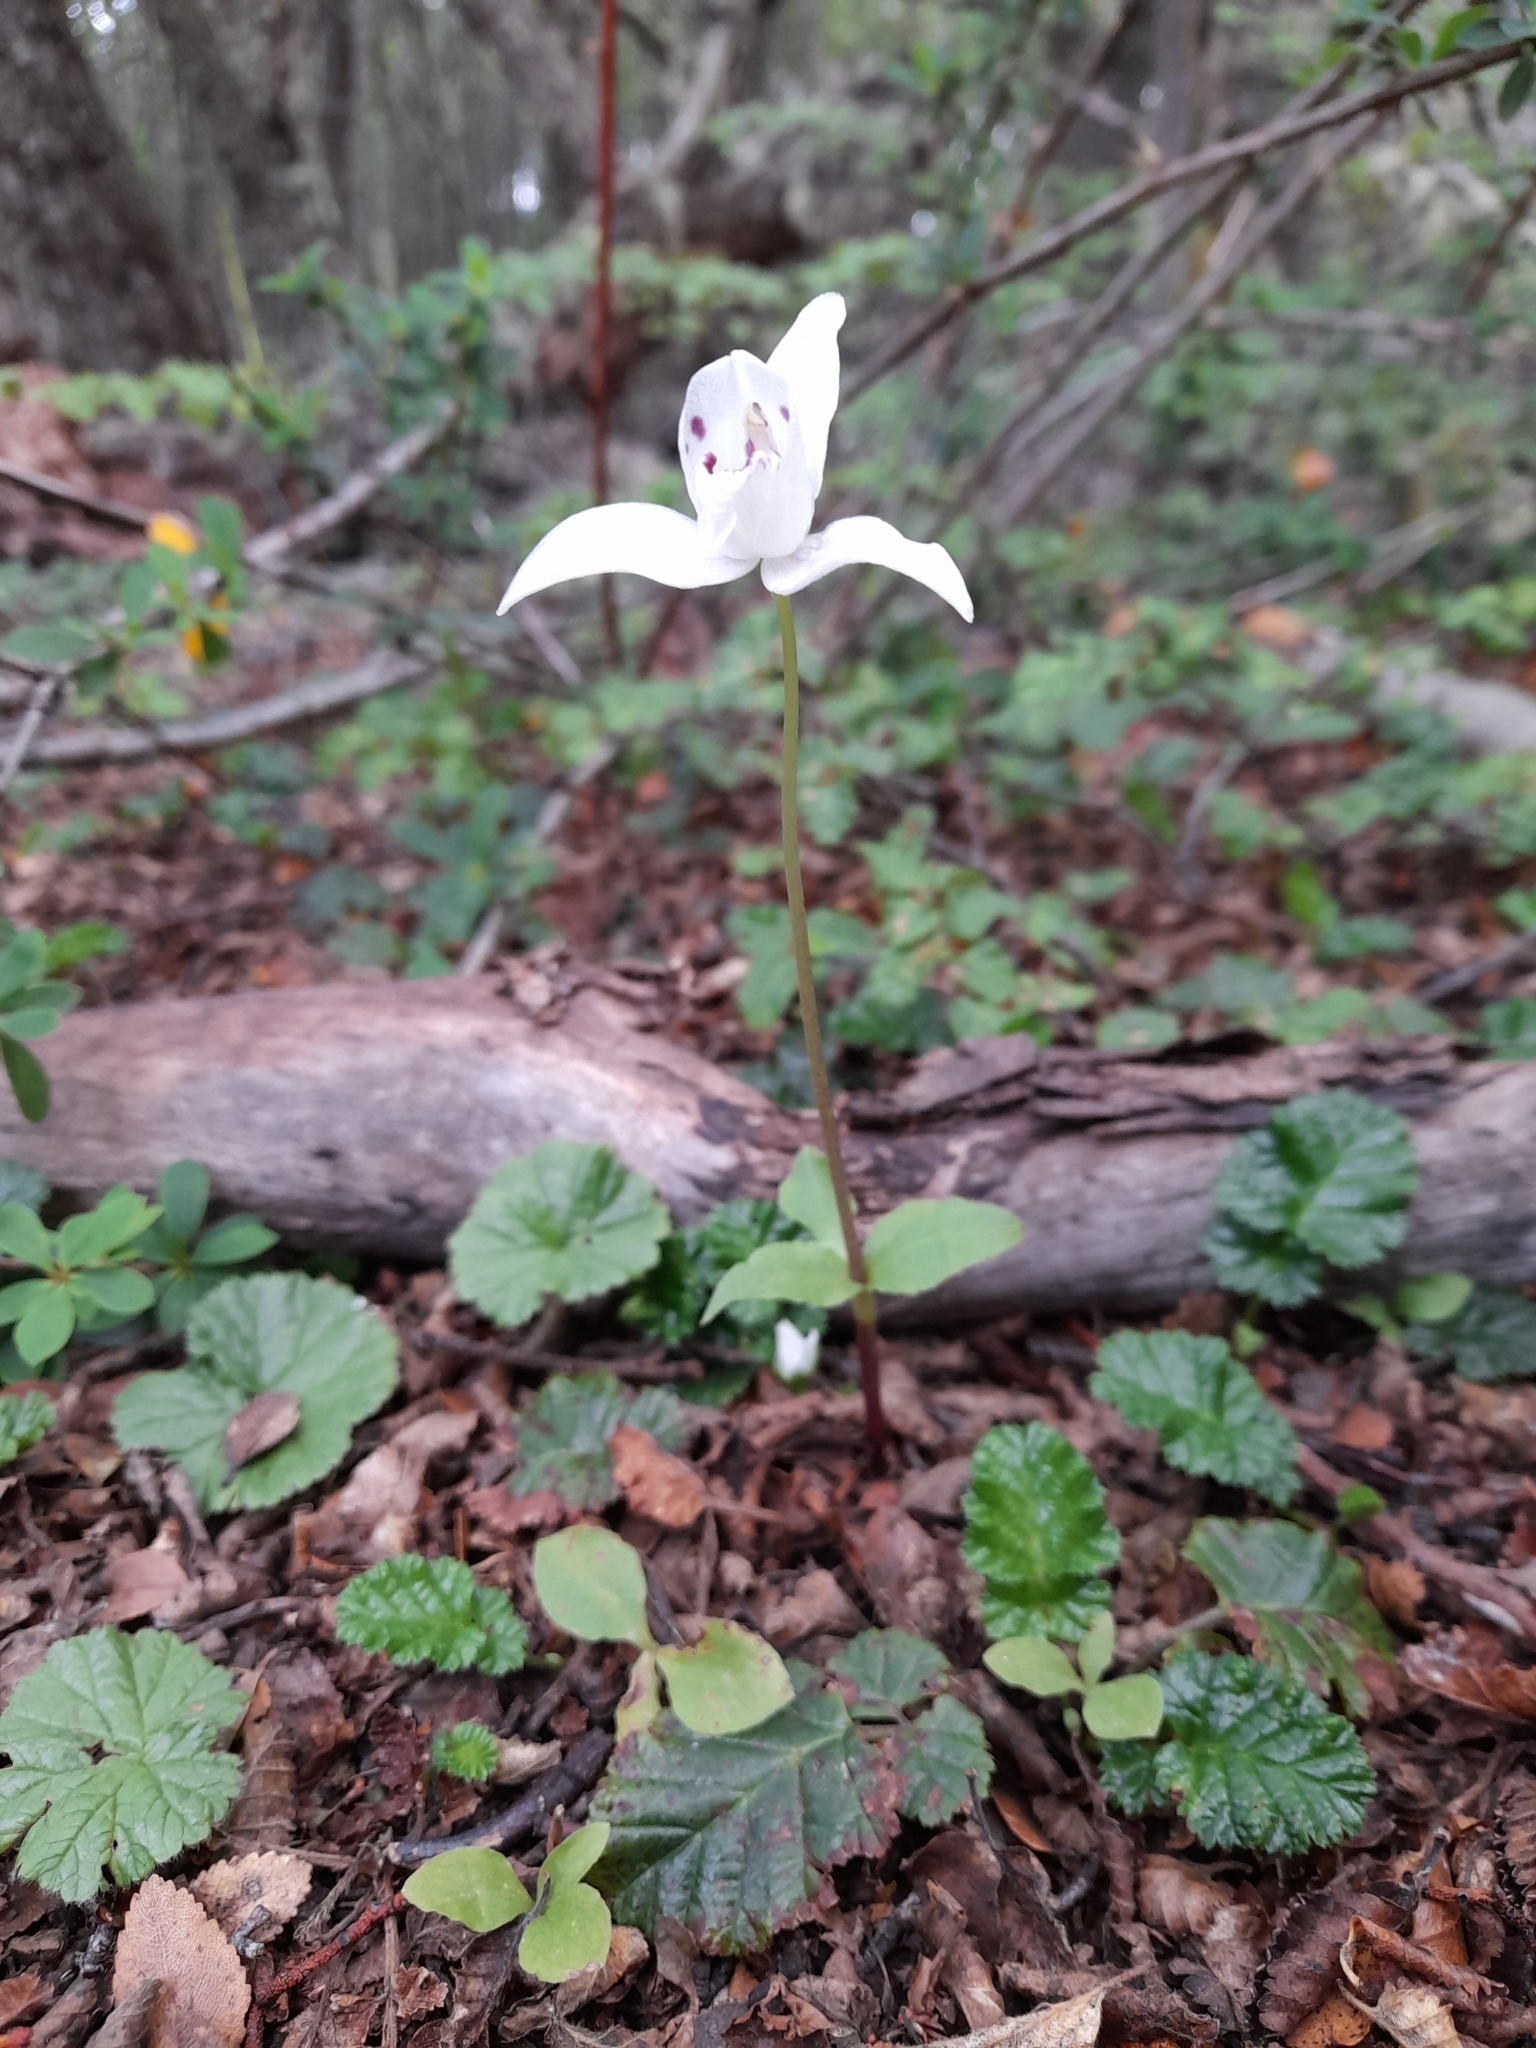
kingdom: Plantae
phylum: Tracheophyta
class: Liliopsida
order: Asparagales
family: Orchidaceae
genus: Codonorchis
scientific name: Codonorchis lessonii
